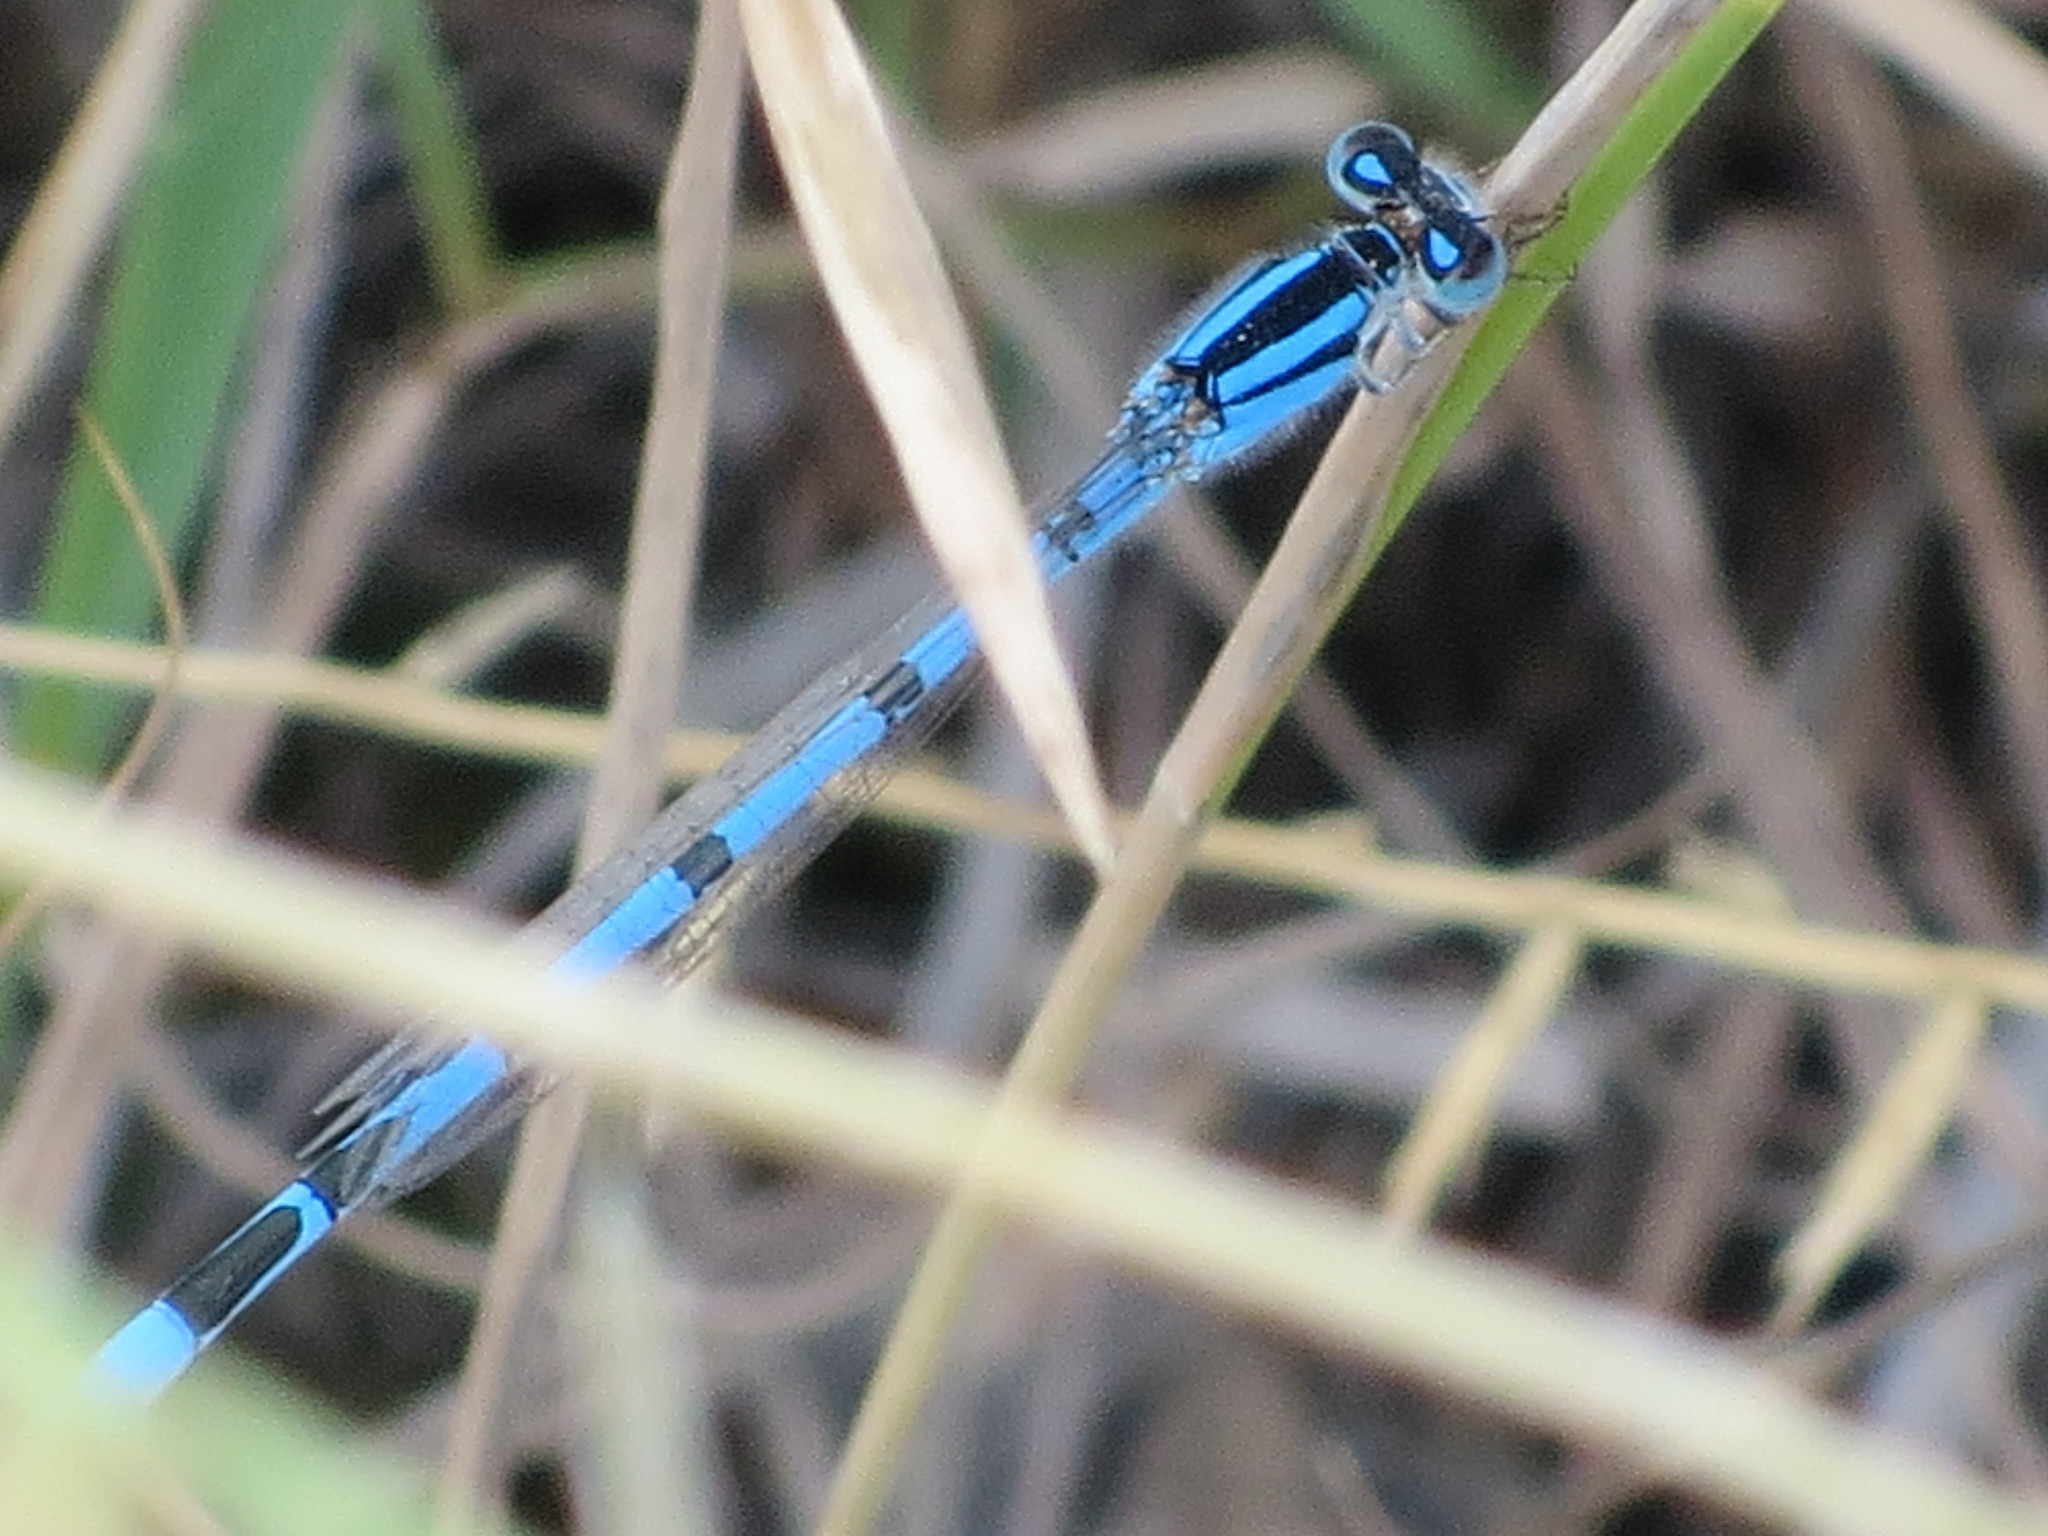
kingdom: Animalia
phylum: Arthropoda
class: Insecta
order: Odonata
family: Coenagrionidae
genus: Enallagma
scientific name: Enallagma civile
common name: Damselfly
